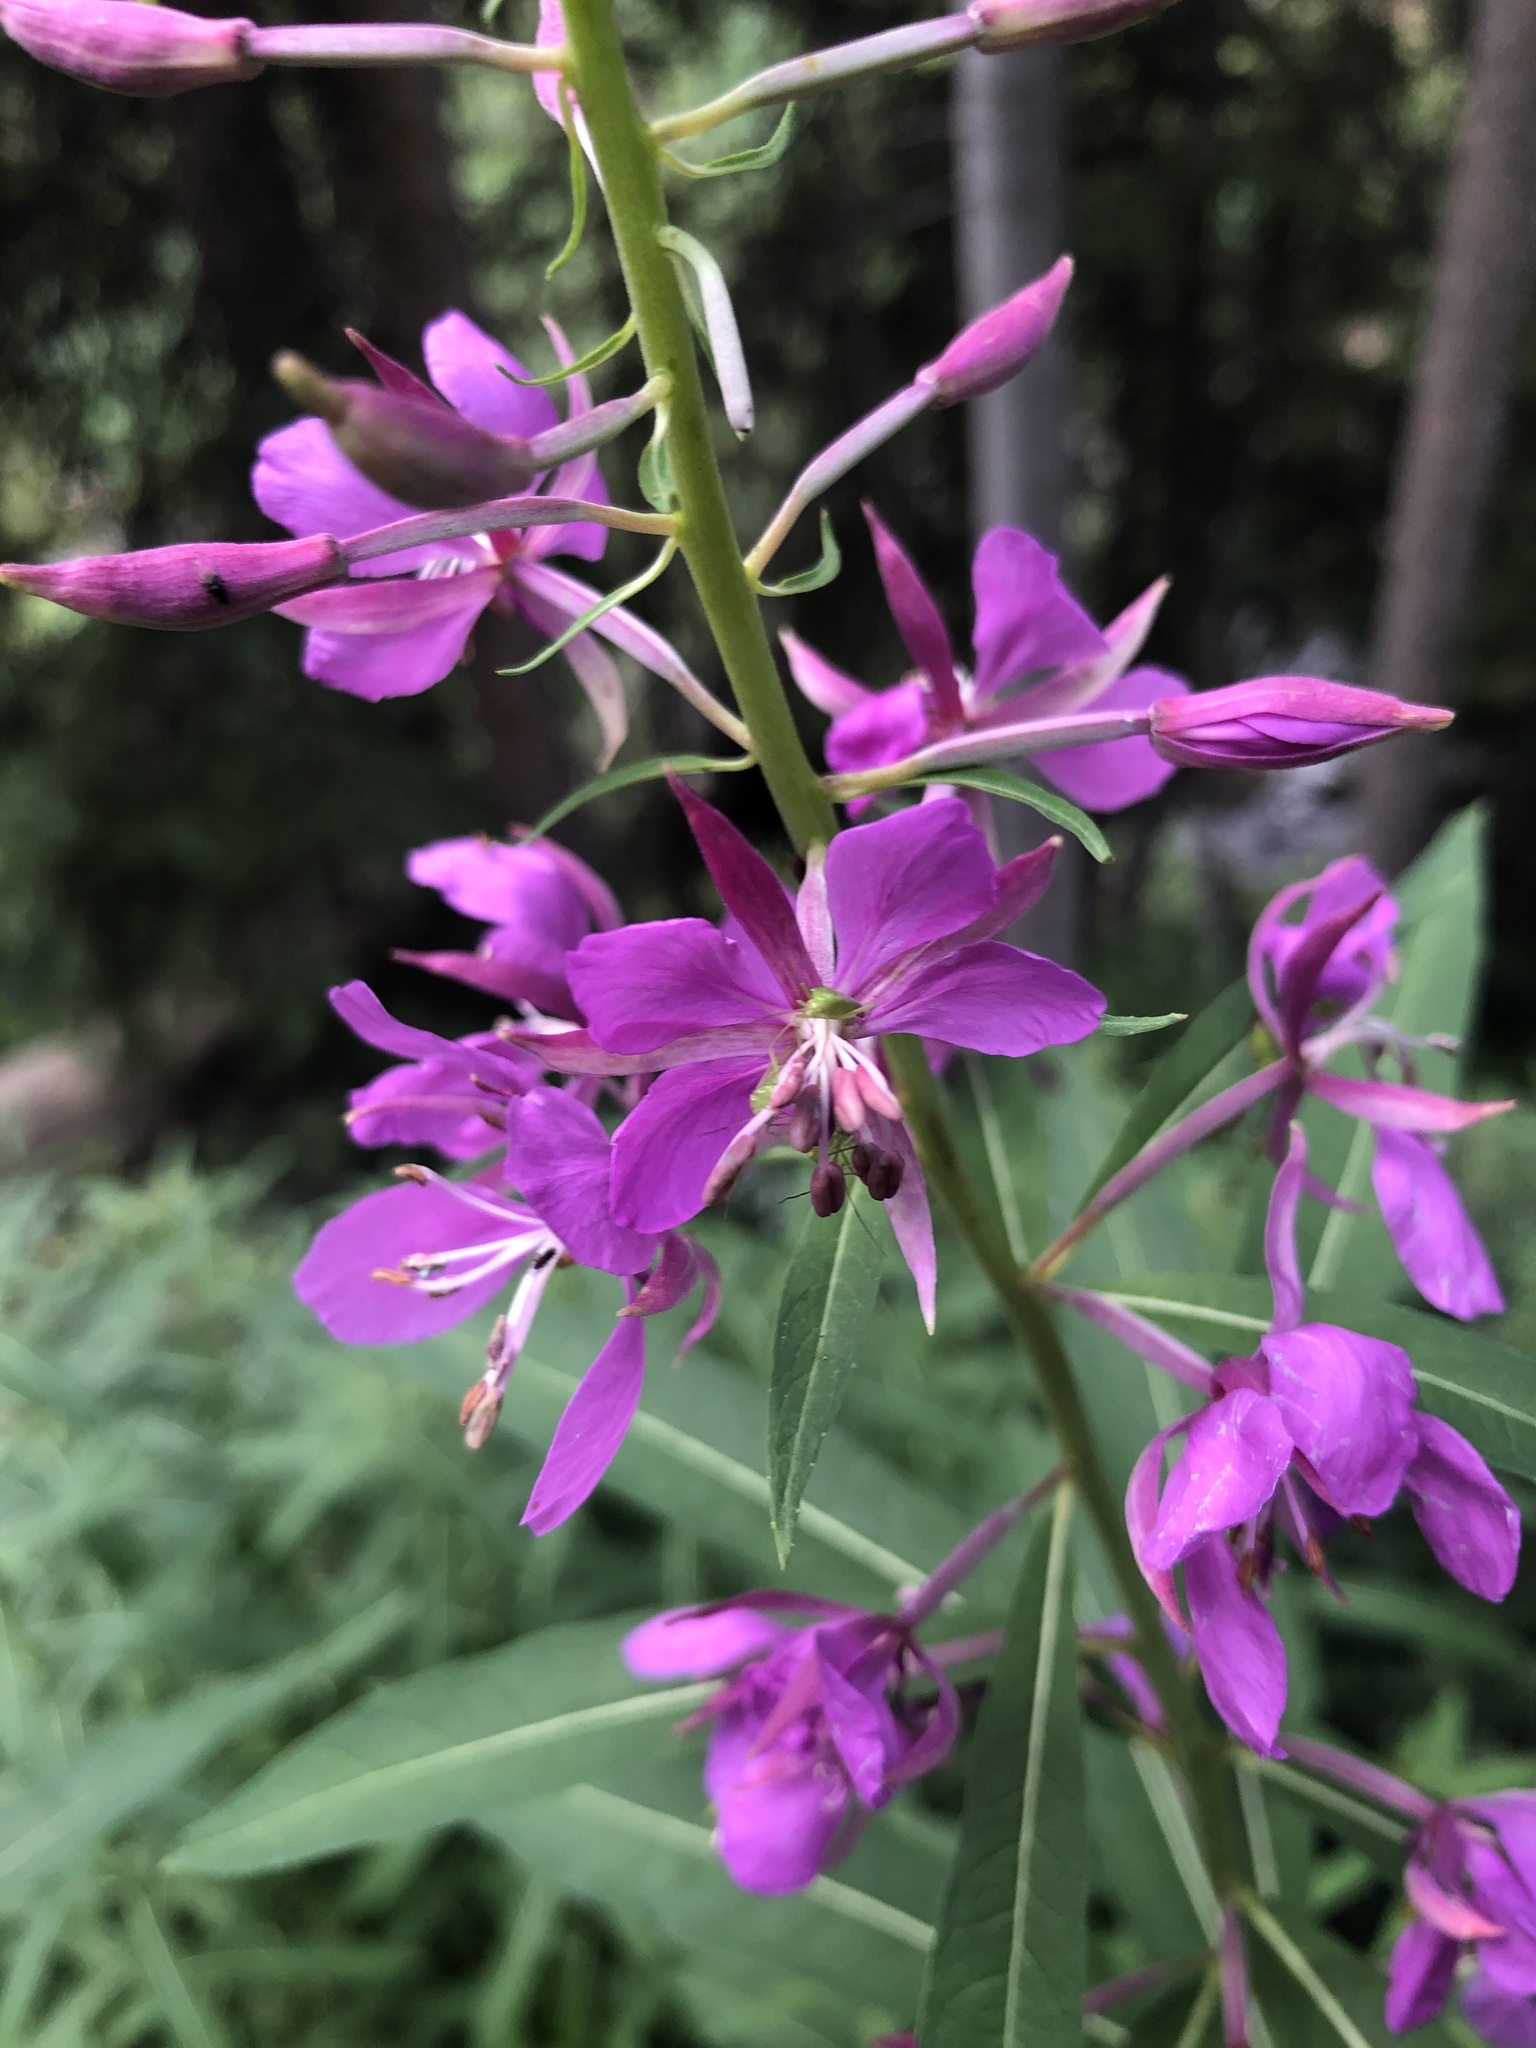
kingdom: Plantae
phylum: Tracheophyta
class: Magnoliopsida
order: Myrtales
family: Onagraceae
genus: Chamaenerion
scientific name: Chamaenerion angustifolium
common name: Fireweed
